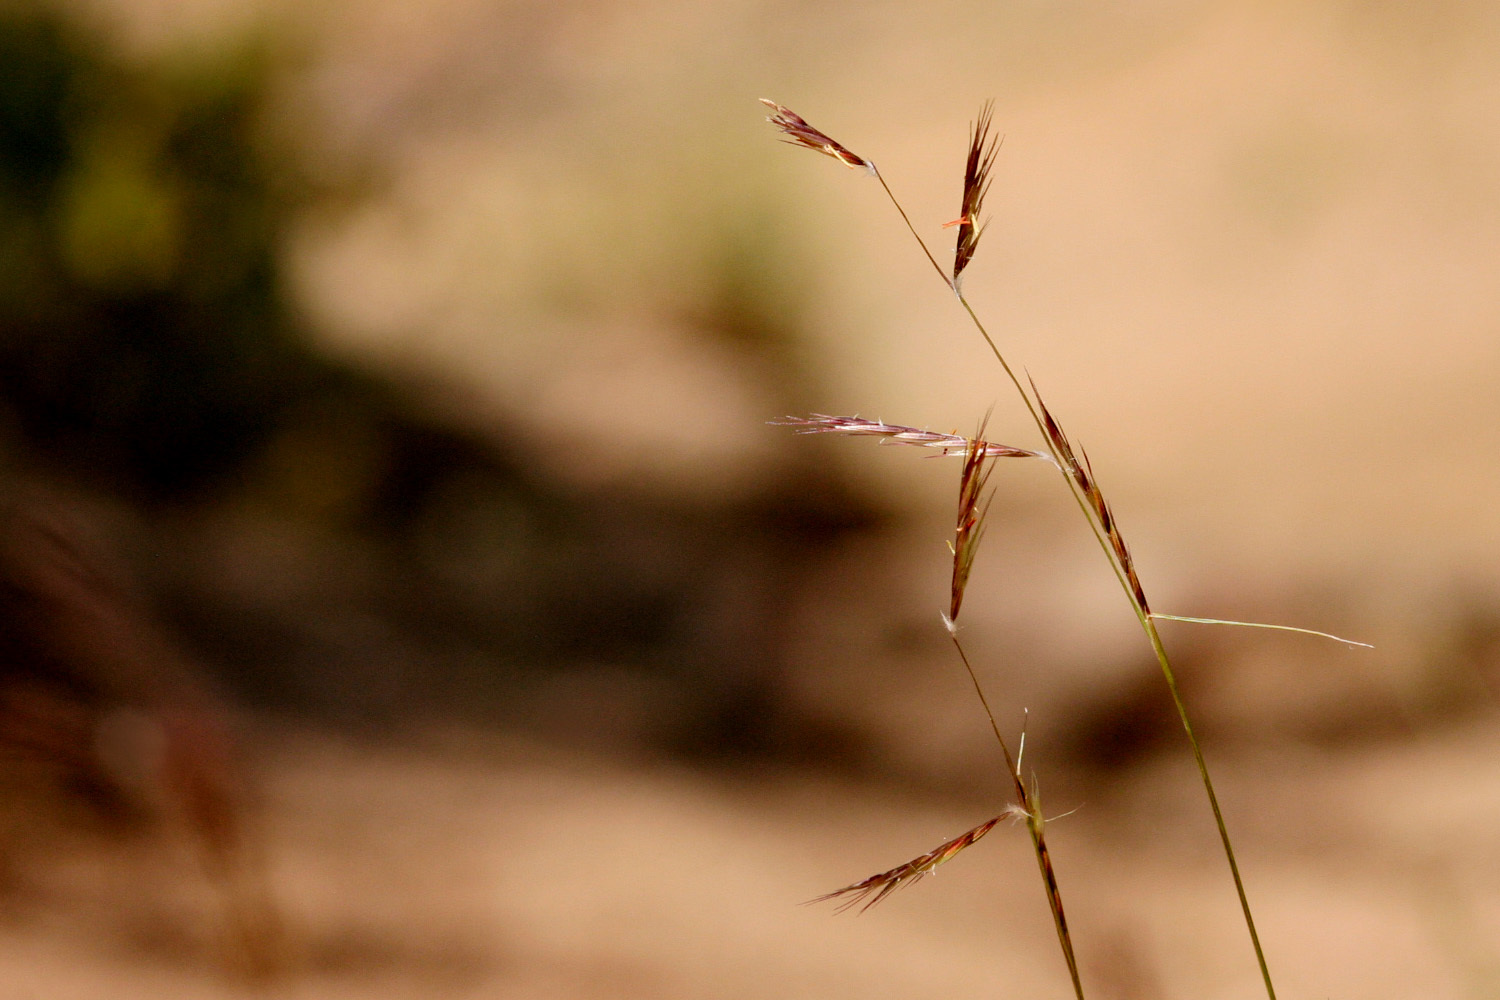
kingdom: Plantae
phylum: Tracheophyta
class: Liliopsida
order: Poales
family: Poaceae
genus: Bouteloua
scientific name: Bouteloua eriopoda
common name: Woolly foot grama
